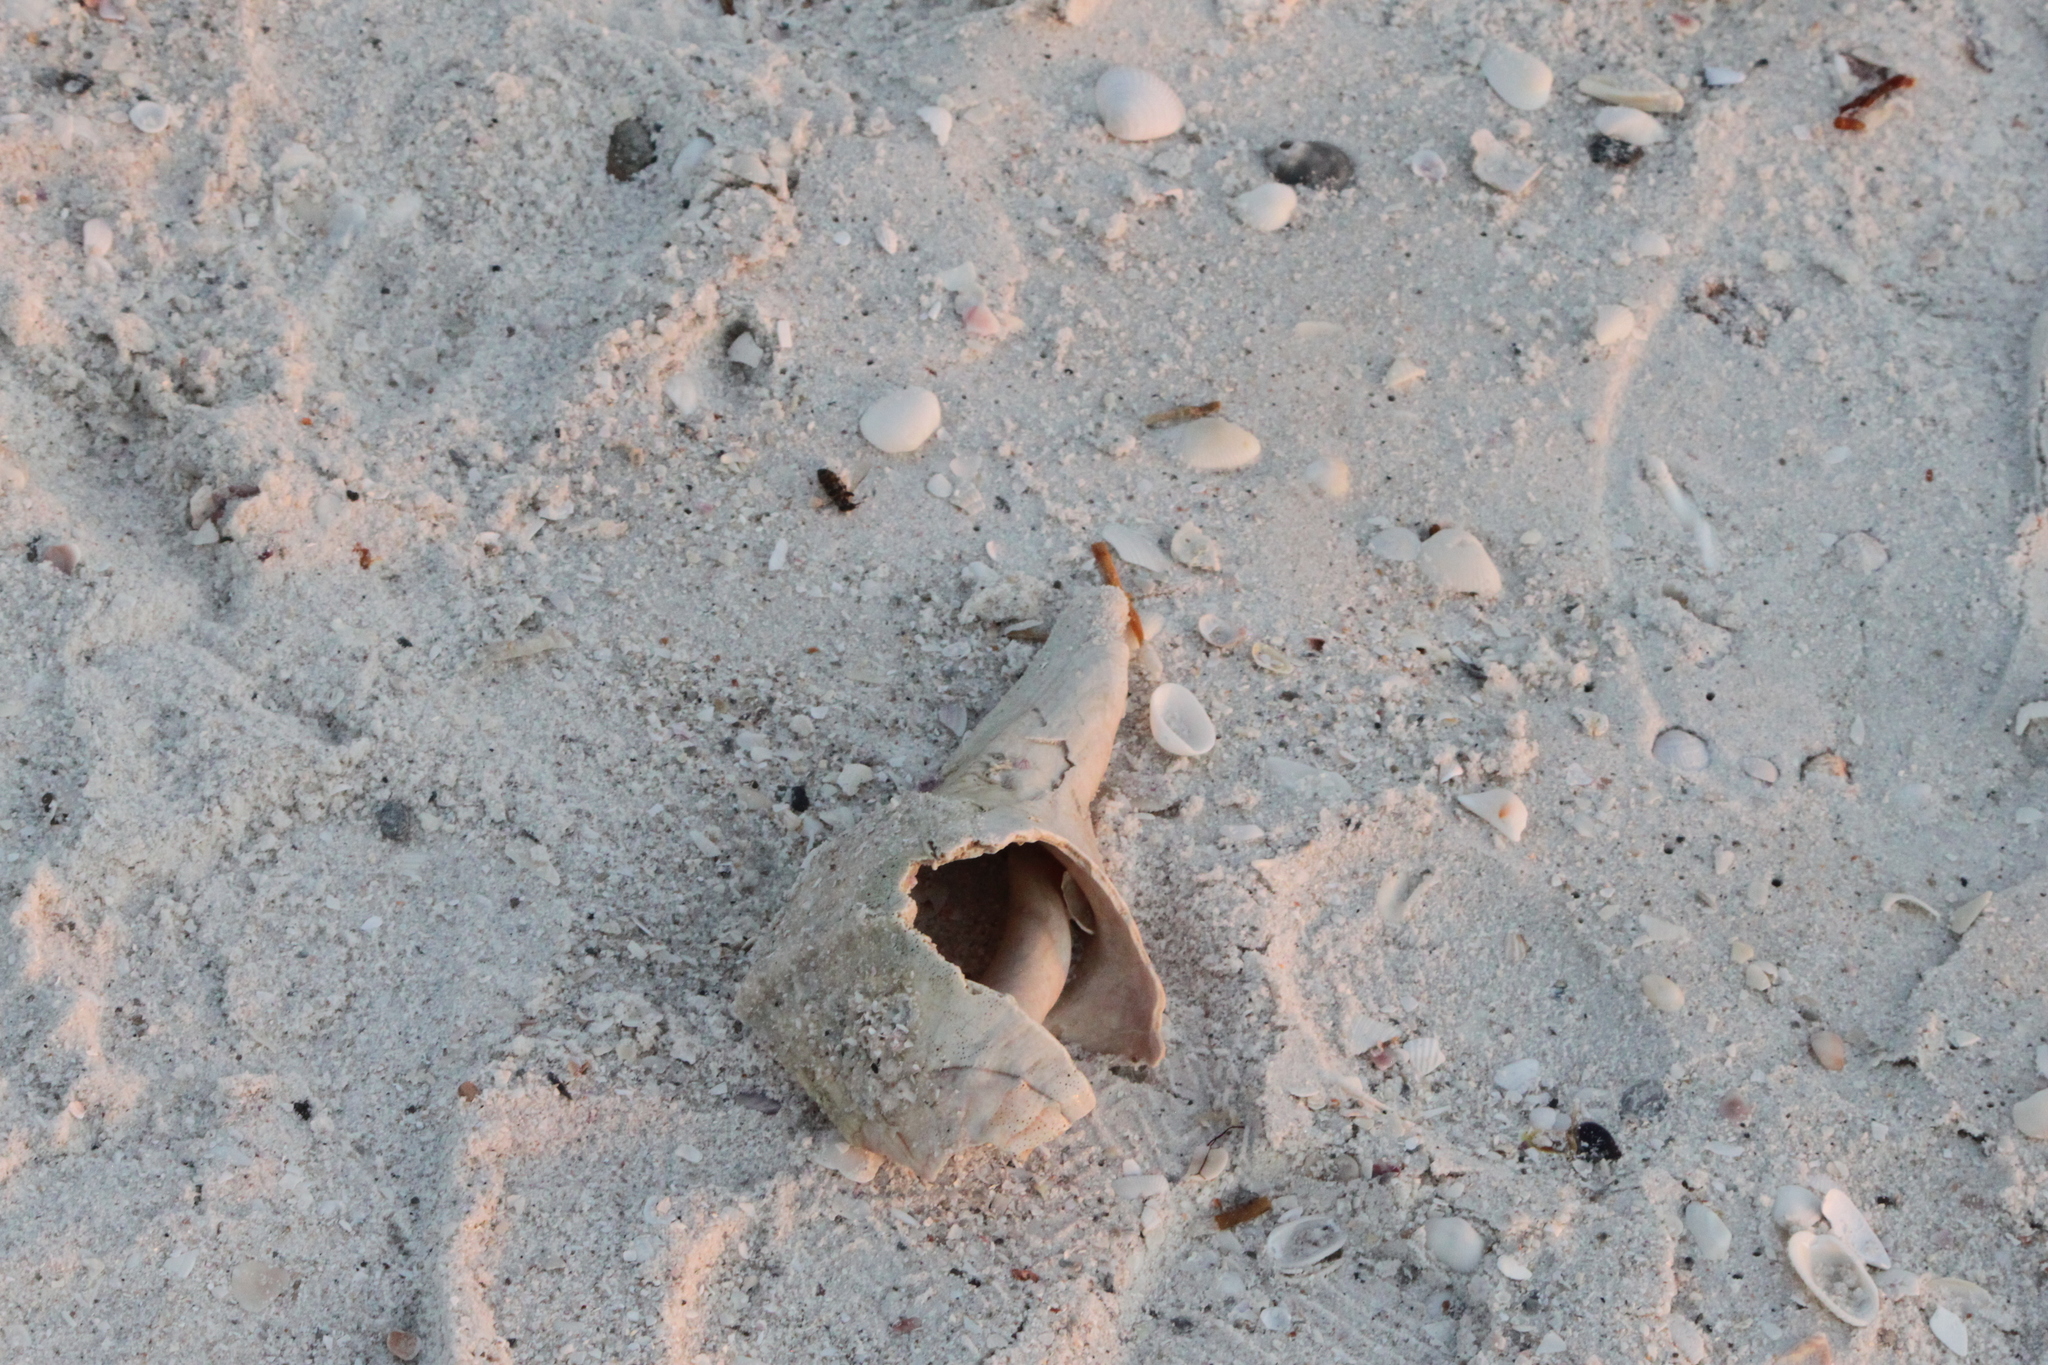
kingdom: Animalia
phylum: Mollusca
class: Gastropoda
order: Neogastropoda
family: Busyconidae
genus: Sinistrofulgur
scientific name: Sinistrofulgur sinistrum
